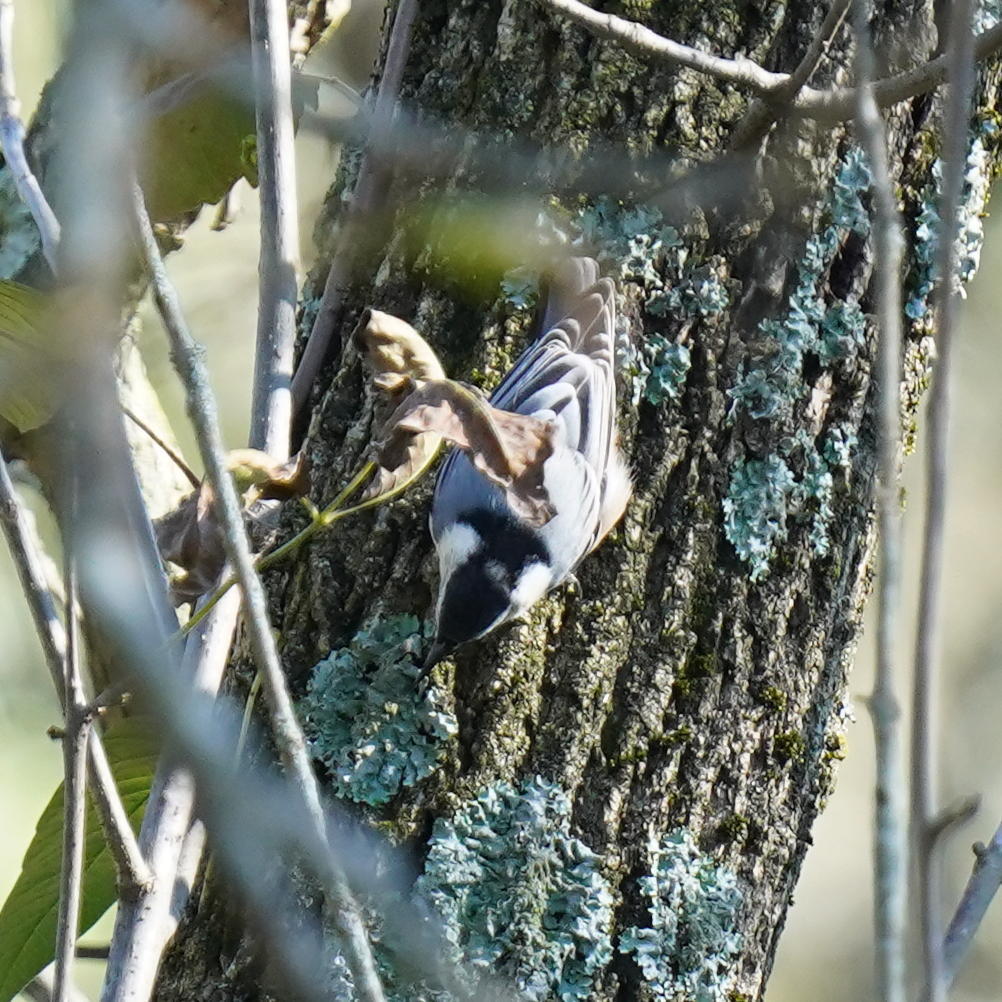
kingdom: Animalia
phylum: Chordata
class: Aves
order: Passeriformes
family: Sittidae
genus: Sitta
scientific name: Sitta carolinensis
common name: White-breasted nuthatch
